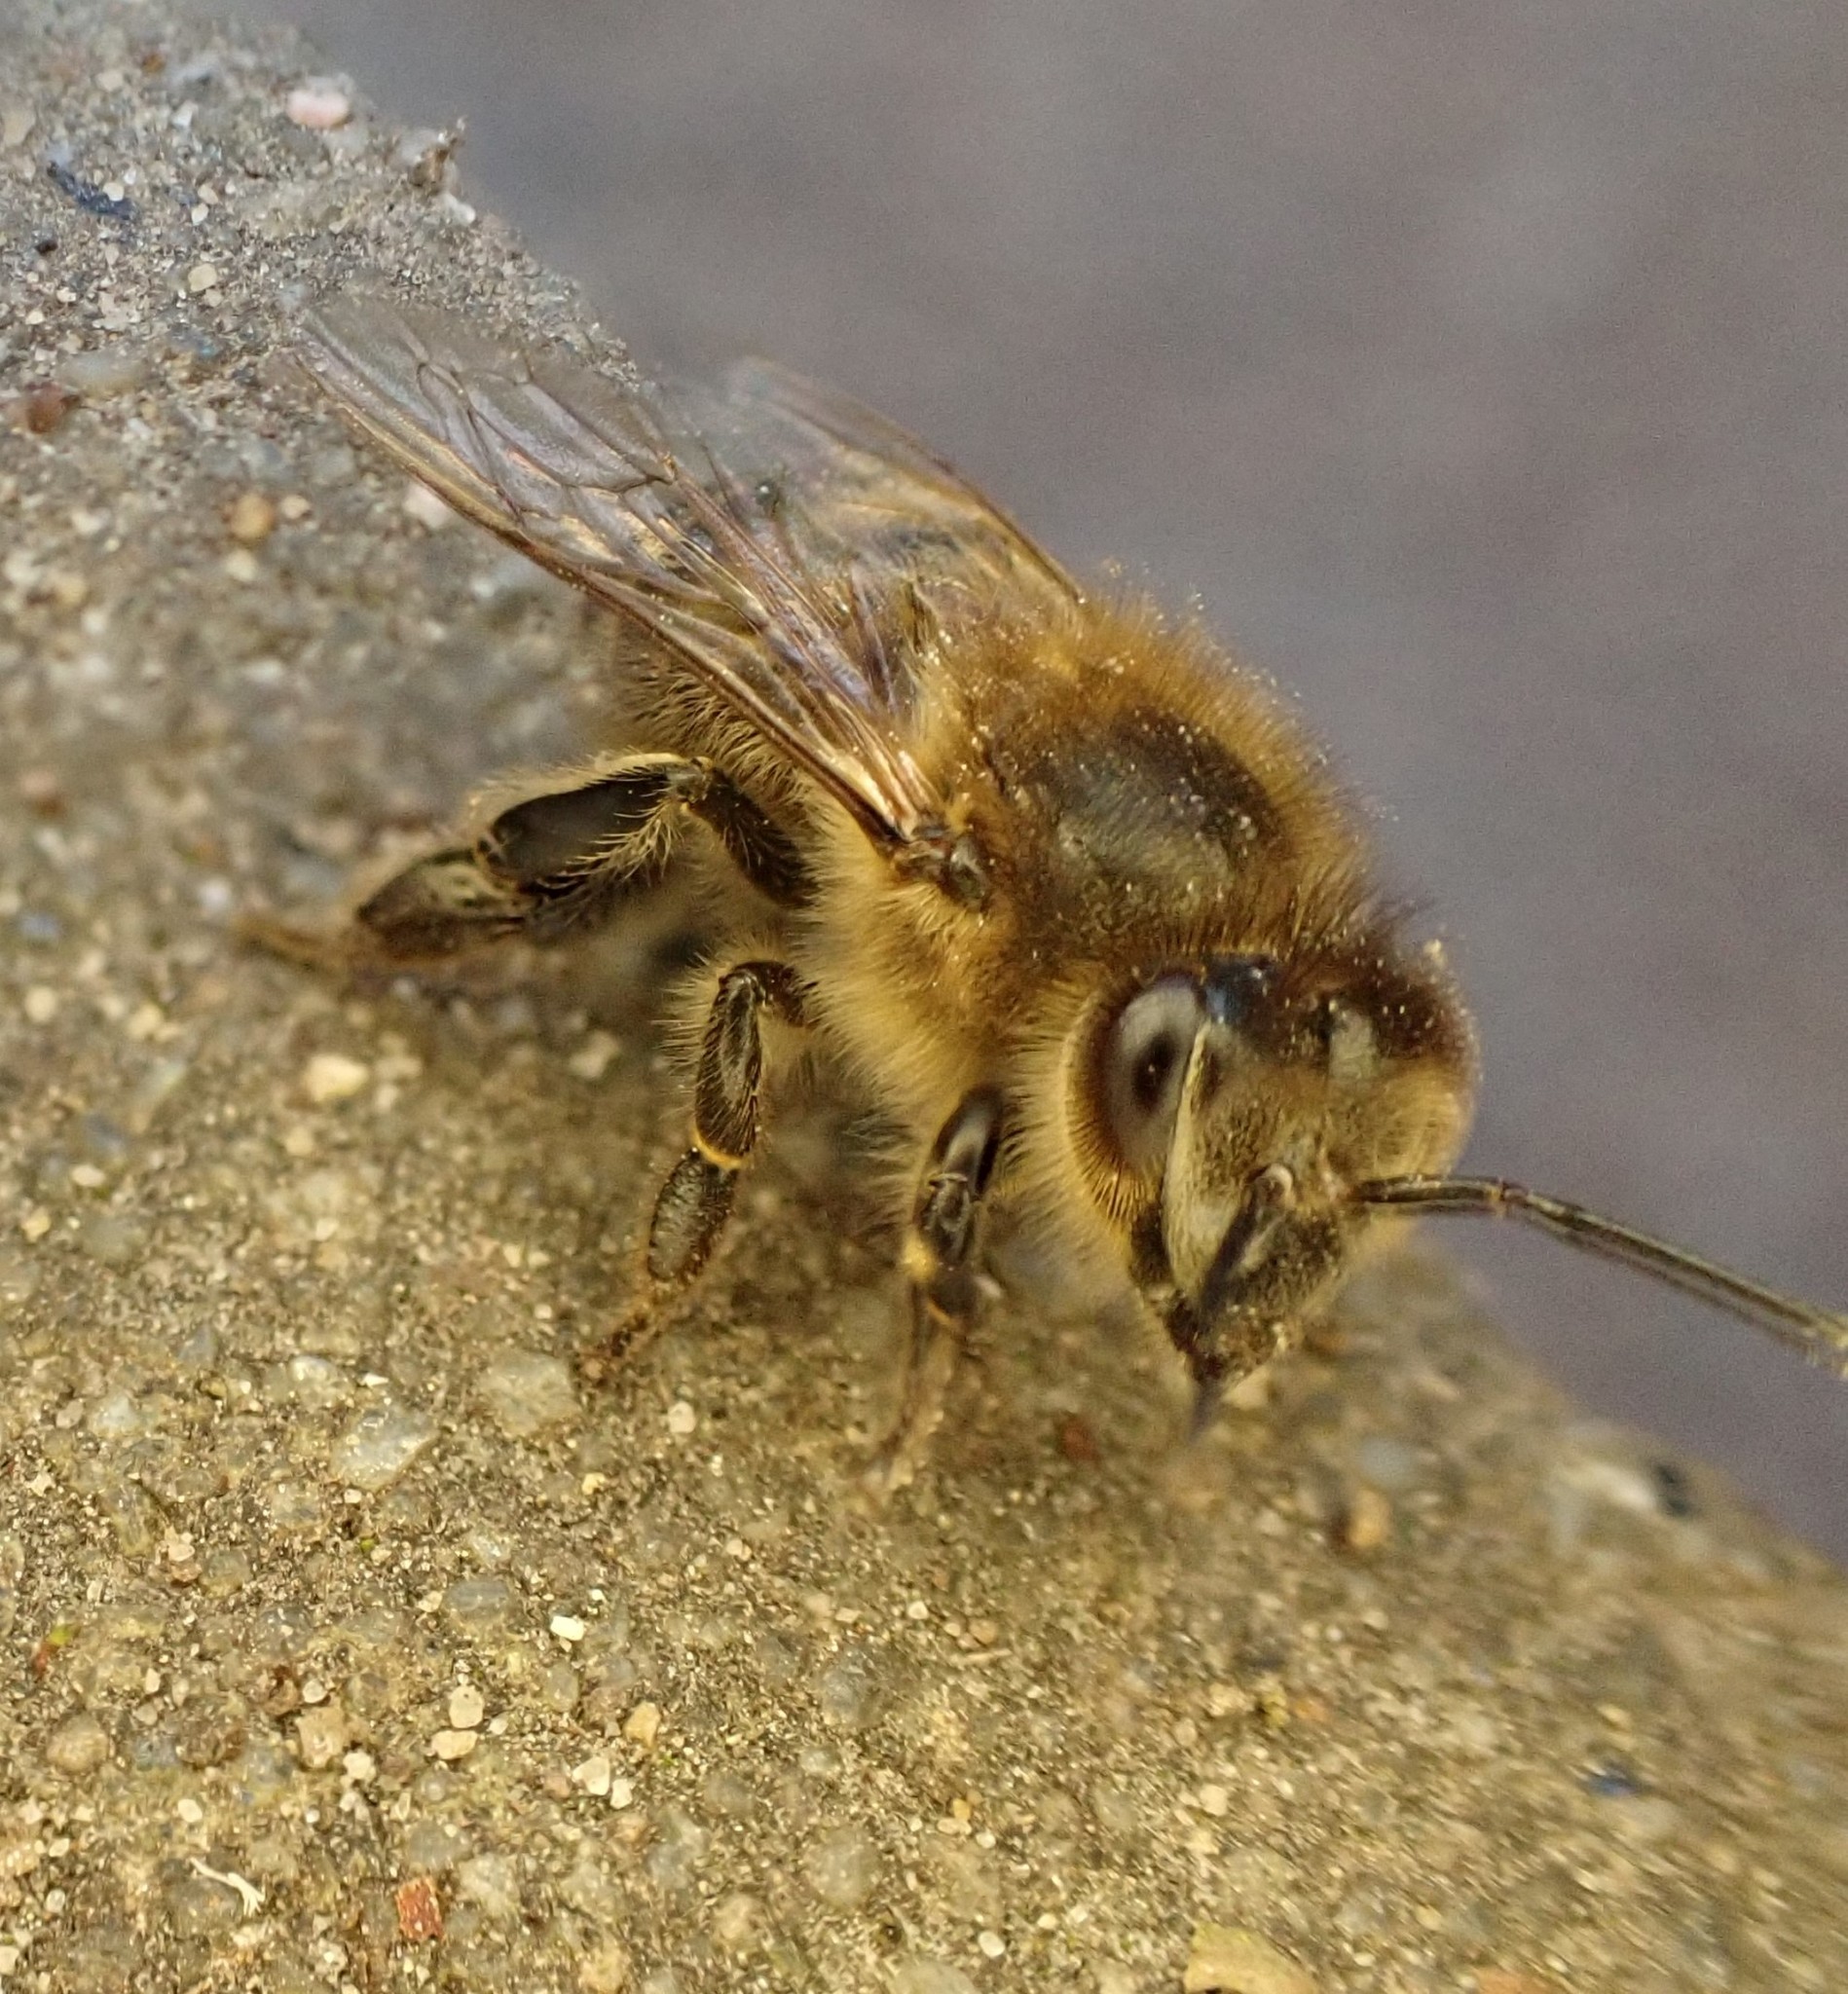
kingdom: Animalia
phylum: Arthropoda
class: Insecta
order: Hymenoptera
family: Apidae
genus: Apis
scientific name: Apis mellifera
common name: Honey bee
